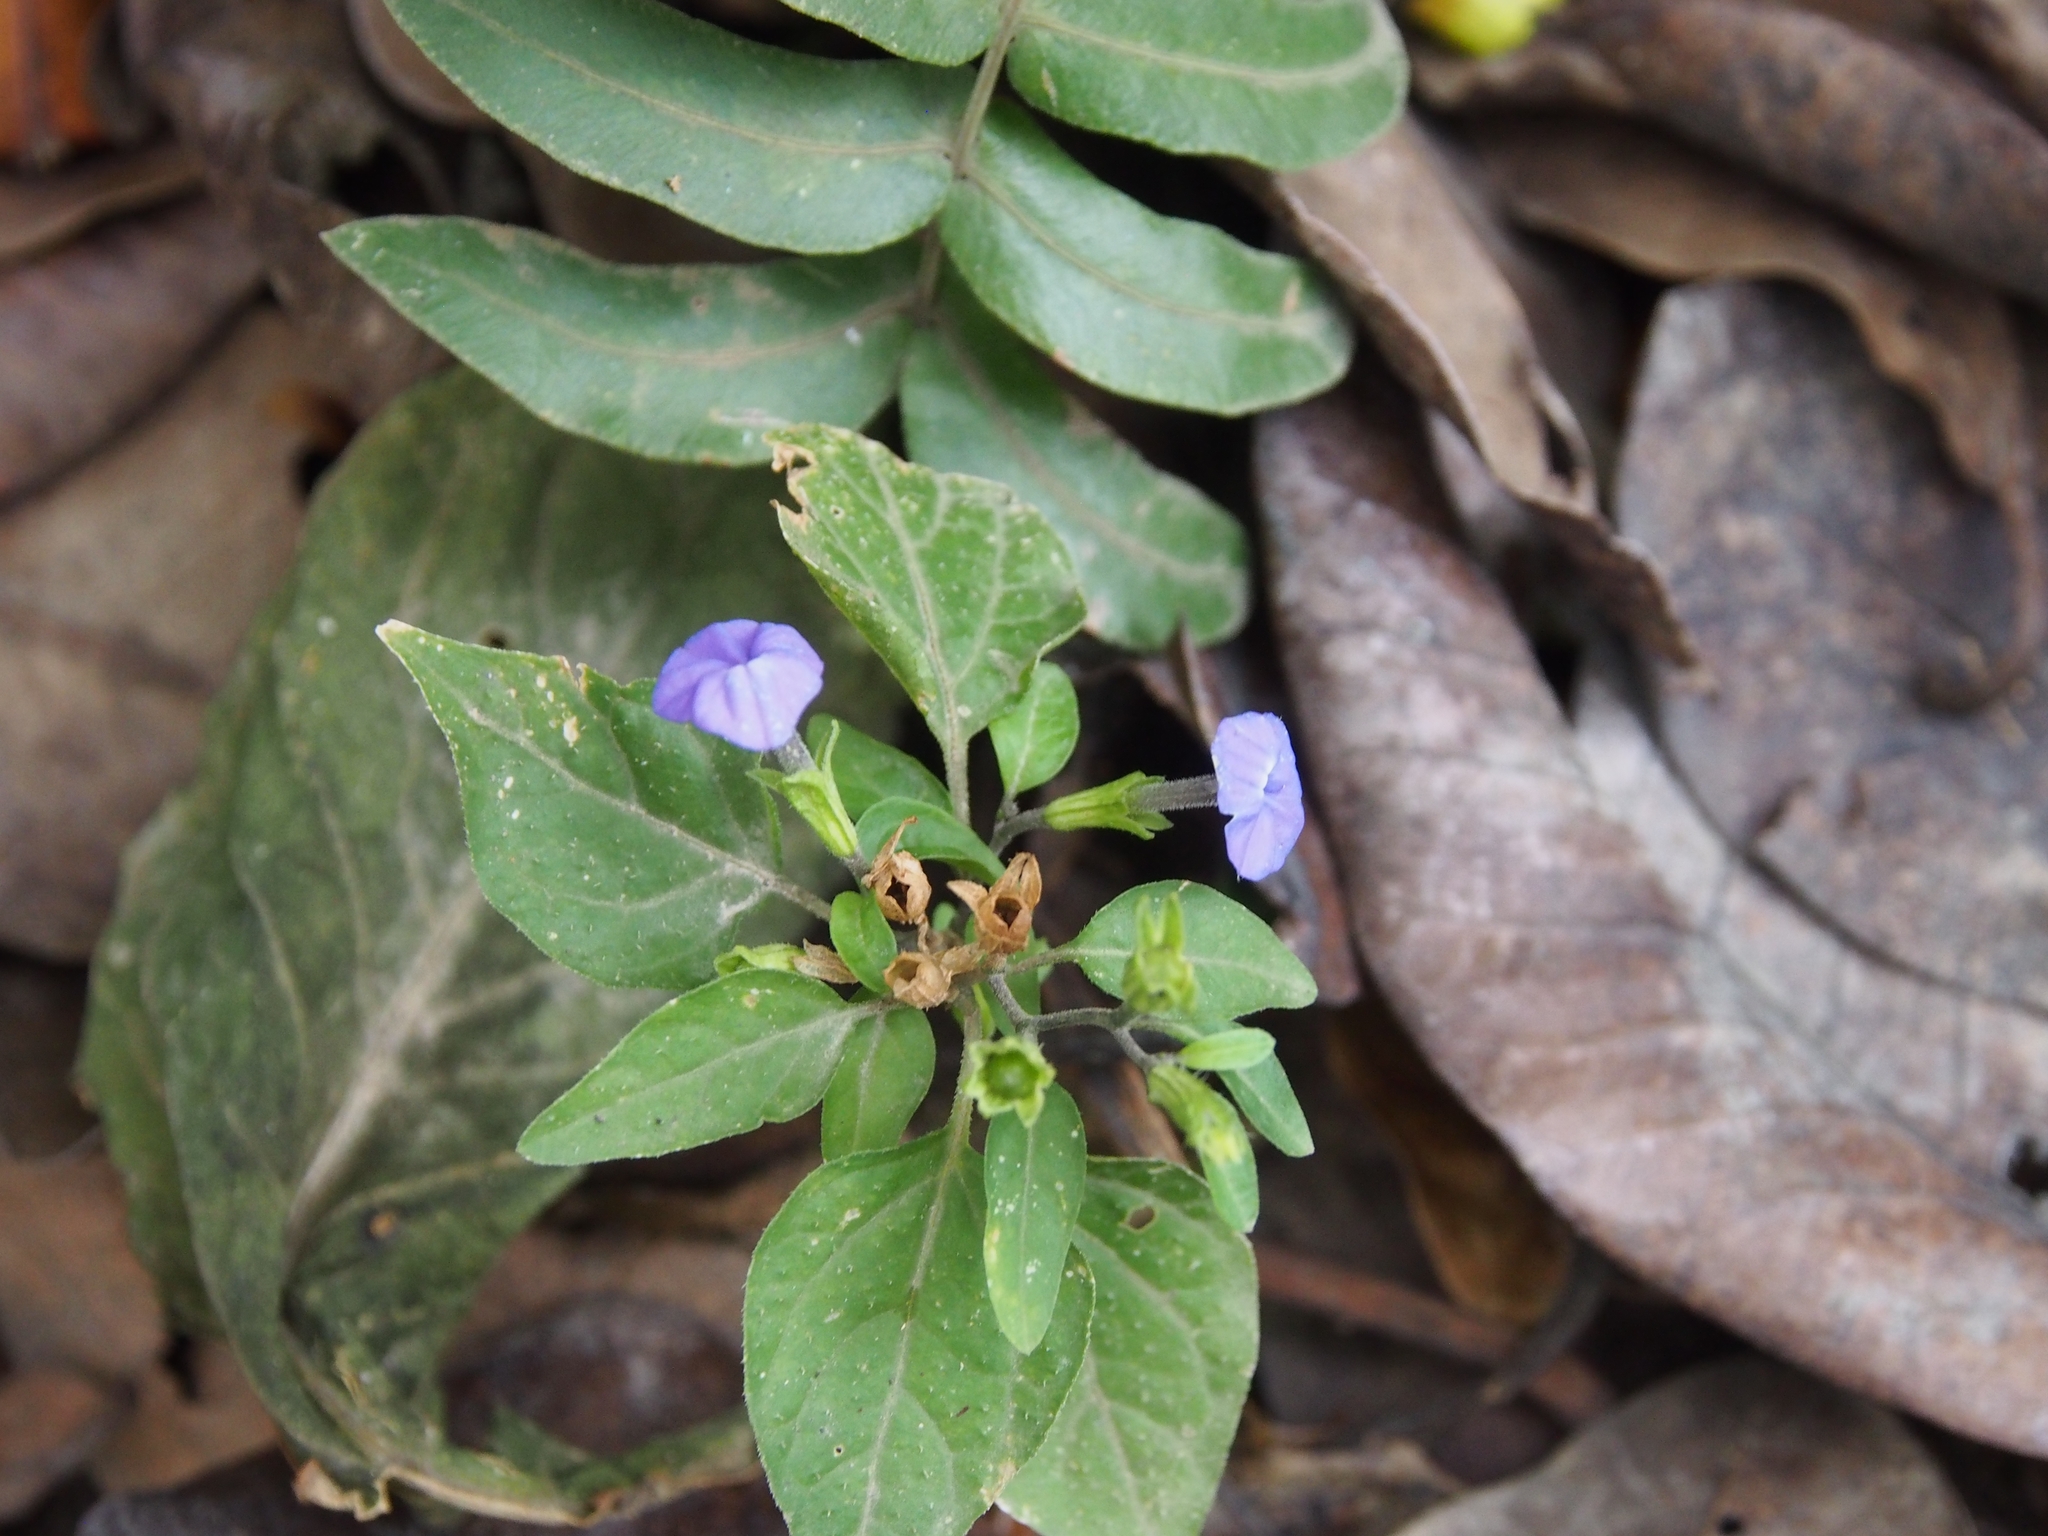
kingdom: Plantae
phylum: Tracheophyta
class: Magnoliopsida
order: Solanales
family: Solanaceae
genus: Browallia
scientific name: Browallia americana
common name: Jamaican forget-me-not
